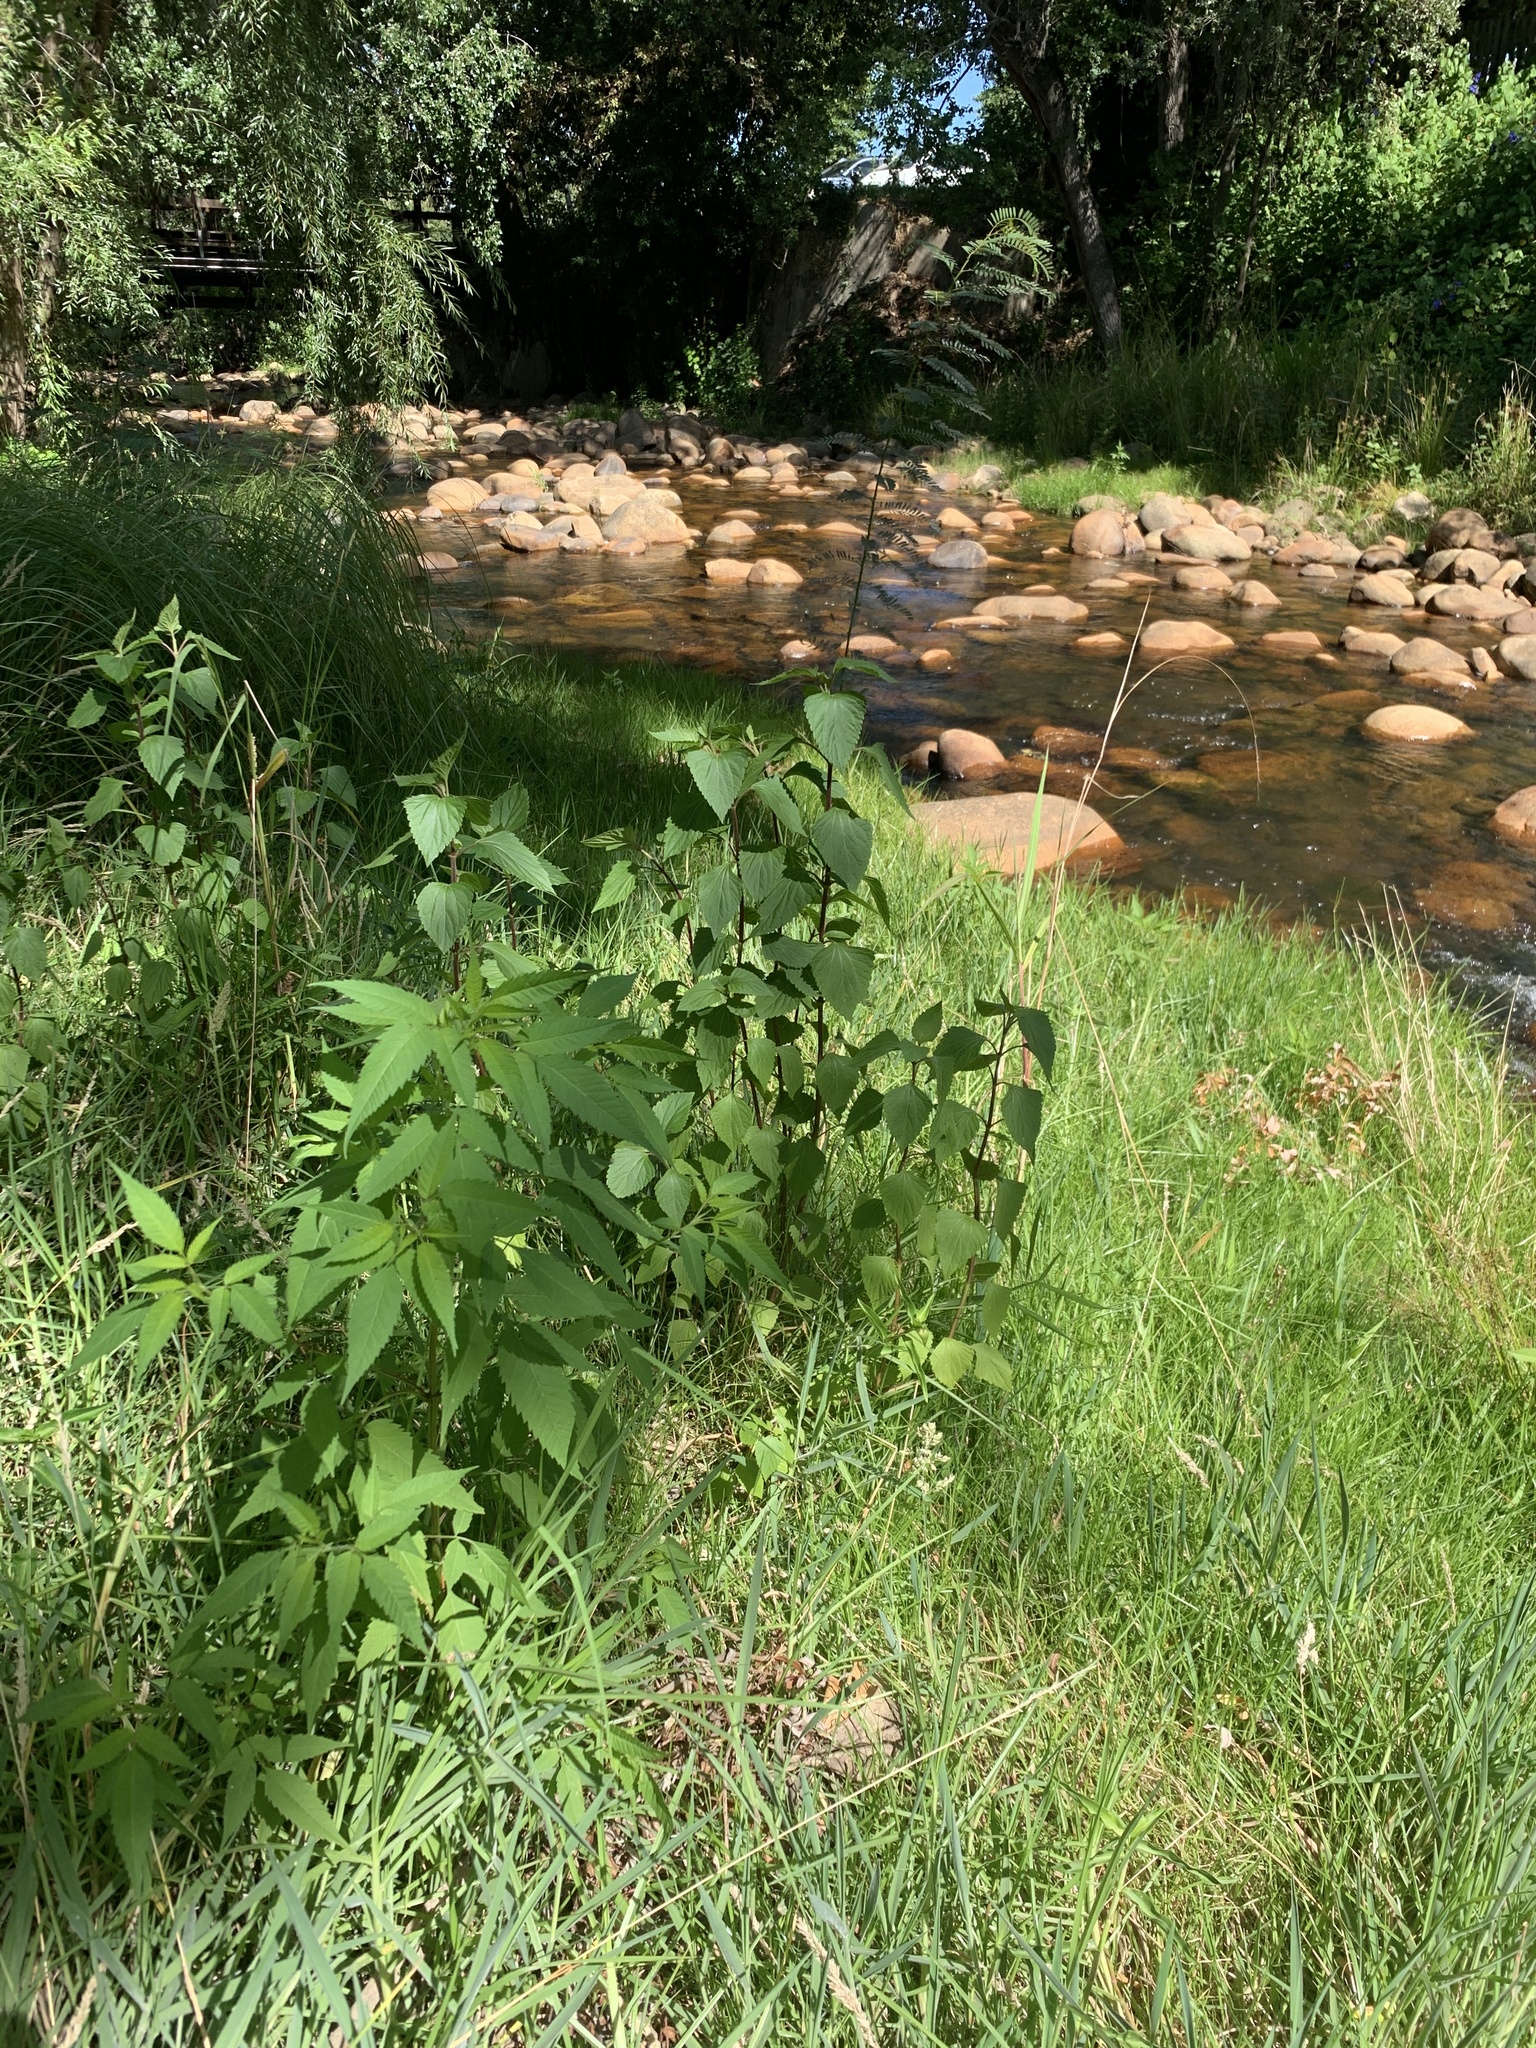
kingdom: Plantae
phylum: Tracheophyta
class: Magnoliopsida
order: Asterales
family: Asteraceae
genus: Ageratina
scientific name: Ageratina adenophora
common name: Sticky snakeroot
